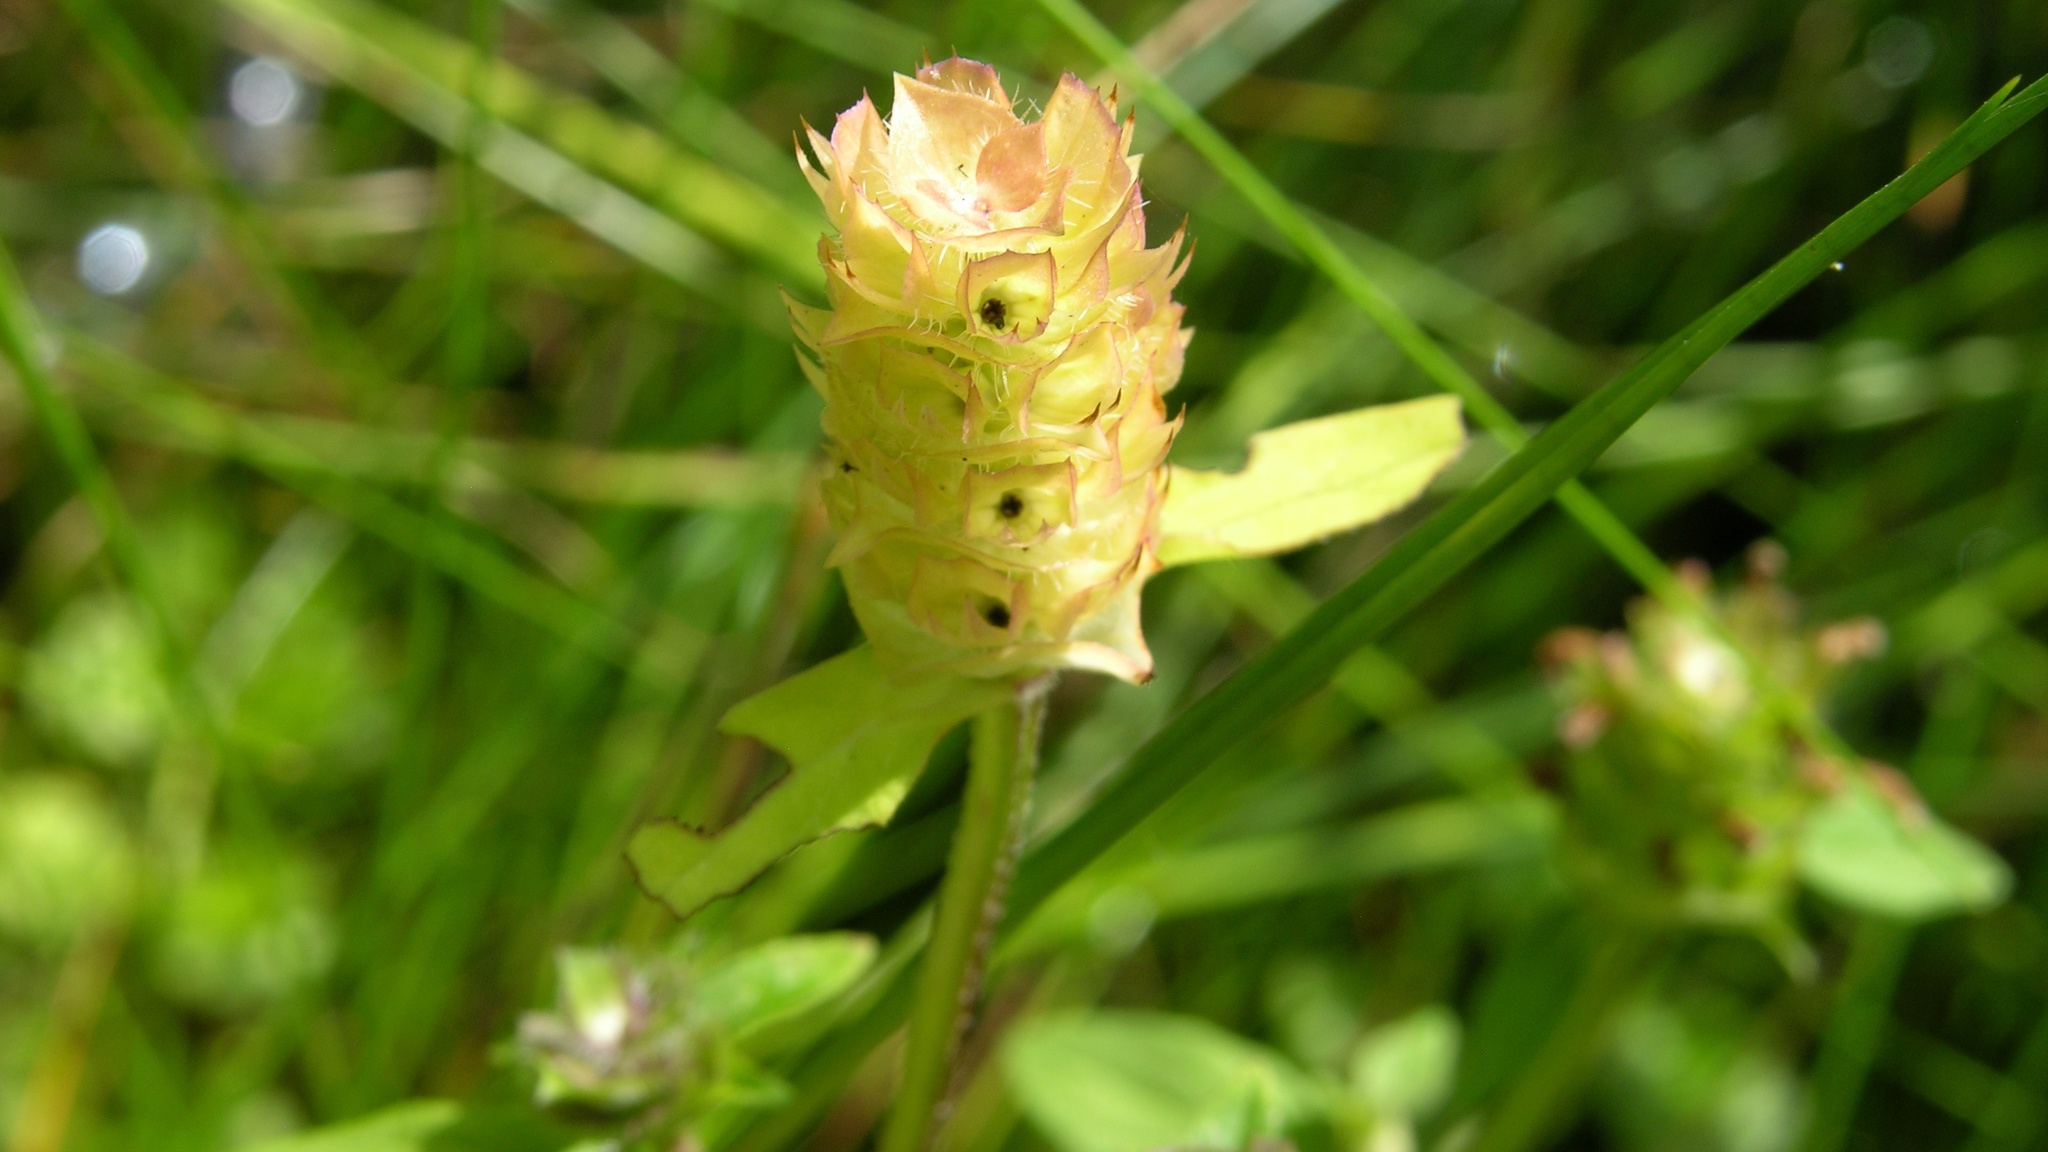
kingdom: Plantae
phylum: Tracheophyta
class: Magnoliopsida
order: Lamiales
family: Lamiaceae
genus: Prunella
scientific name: Prunella vulgaris
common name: Heal-all
